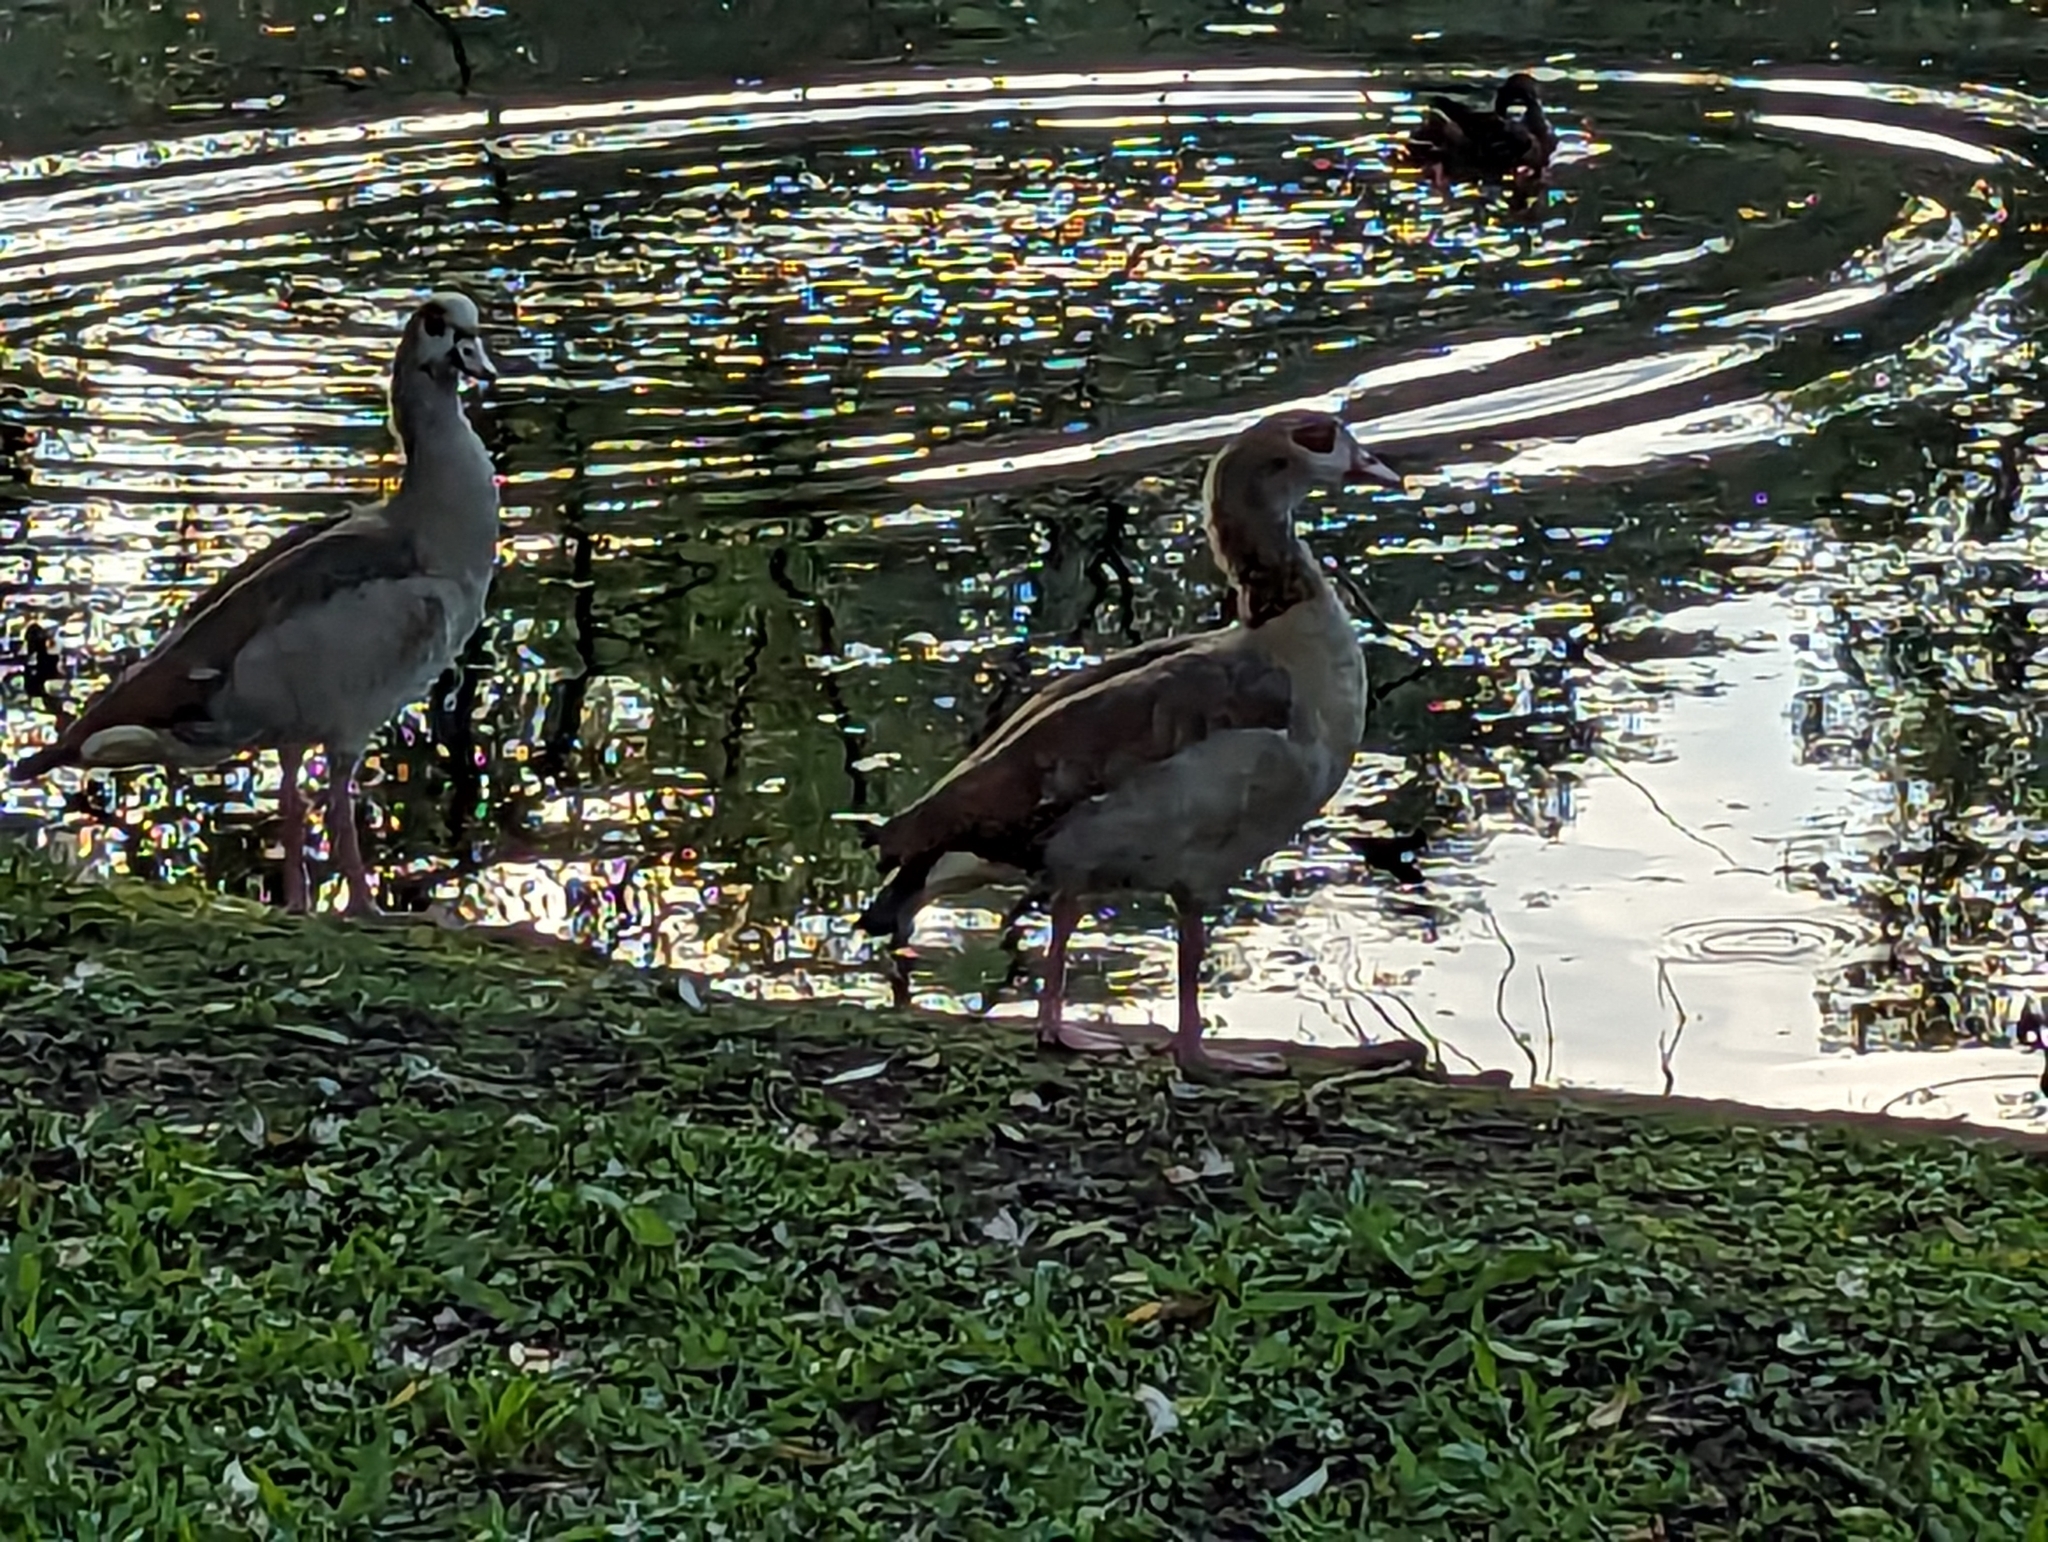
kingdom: Animalia
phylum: Chordata
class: Aves
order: Anseriformes
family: Anatidae
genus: Alopochen
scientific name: Alopochen aegyptiaca
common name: Egyptian goose
